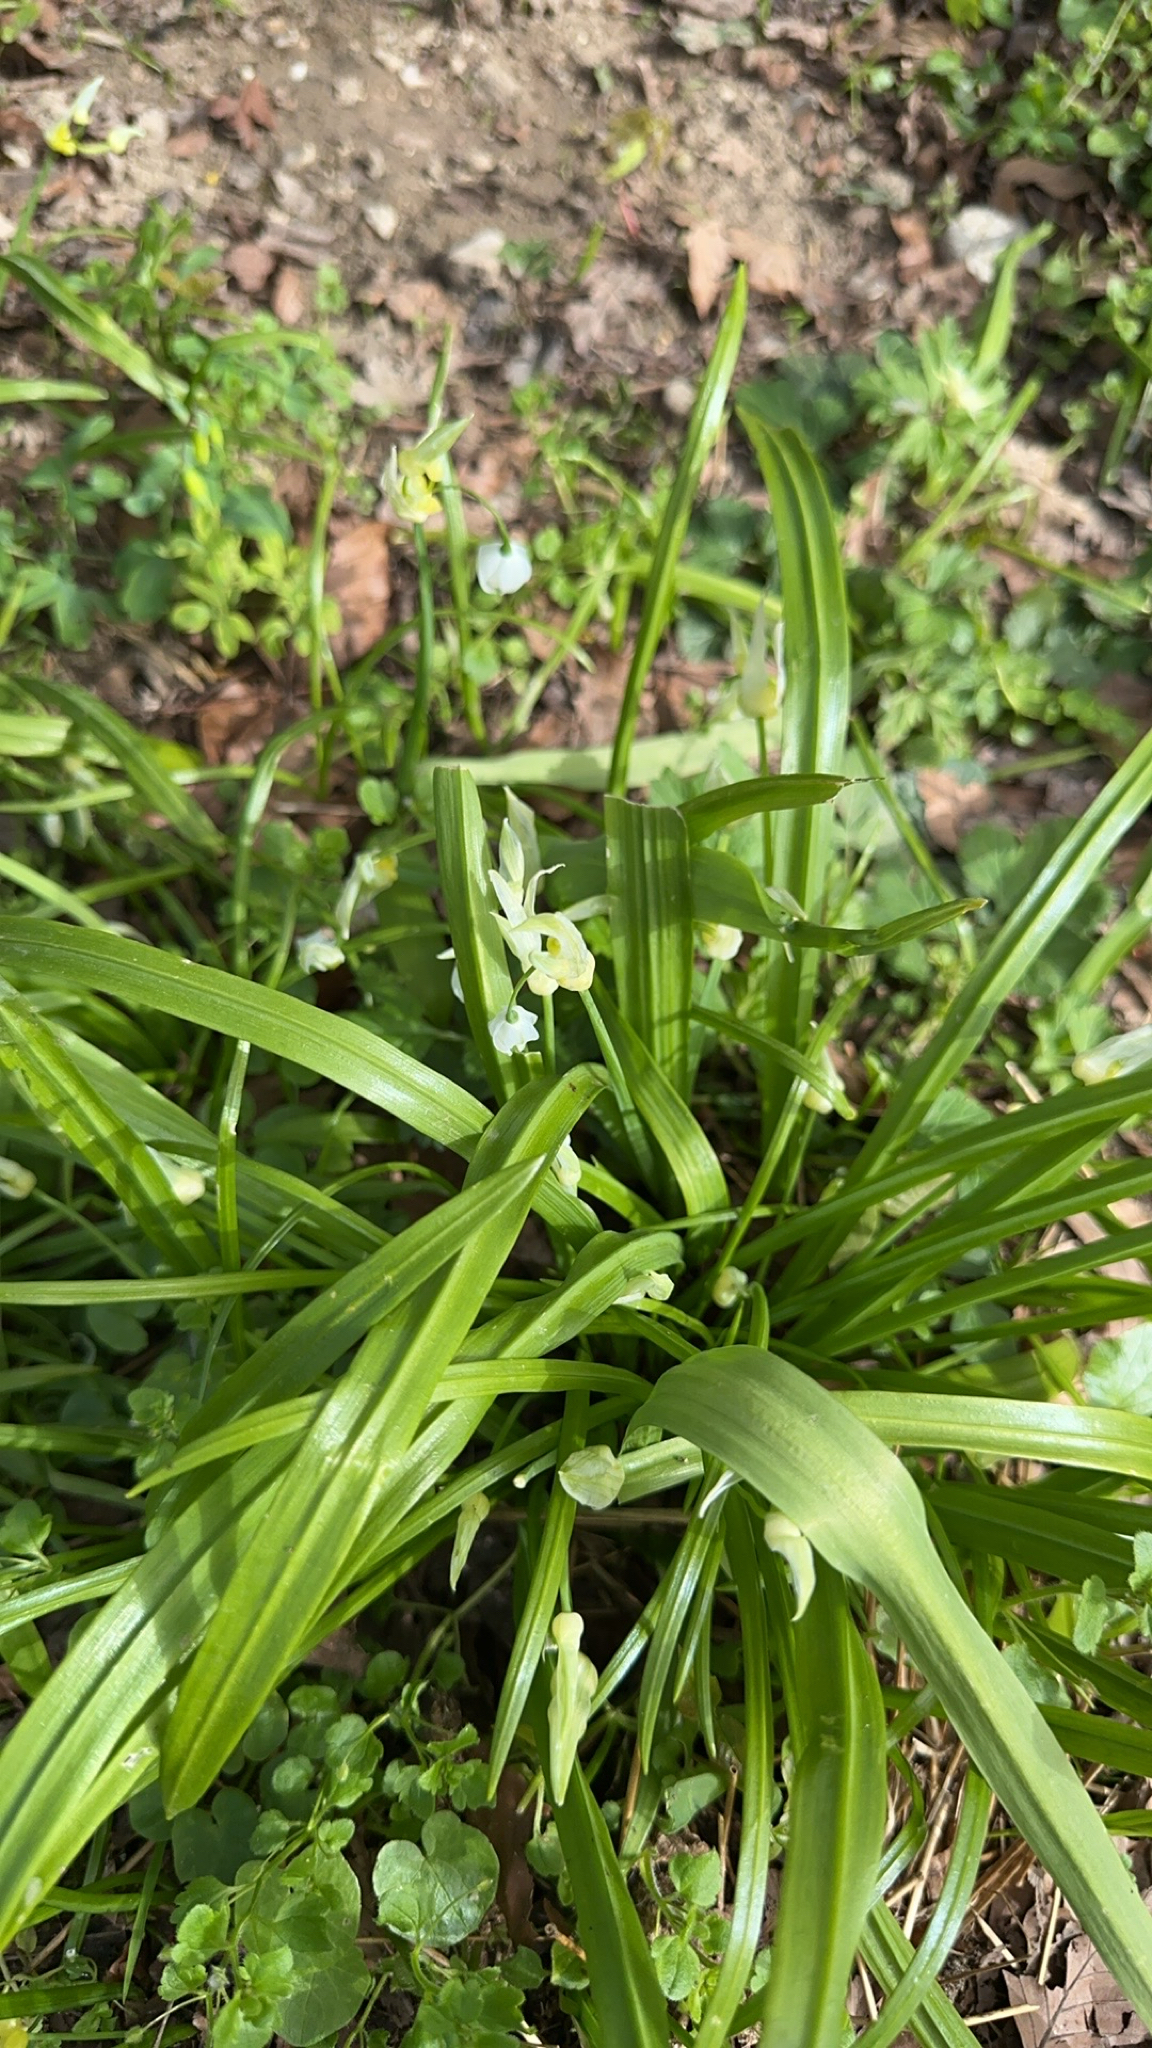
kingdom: Plantae
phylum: Tracheophyta
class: Liliopsida
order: Asparagales
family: Amaryllidaceae
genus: Allium
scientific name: Allium paradoxum
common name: Few-flowered garlic
